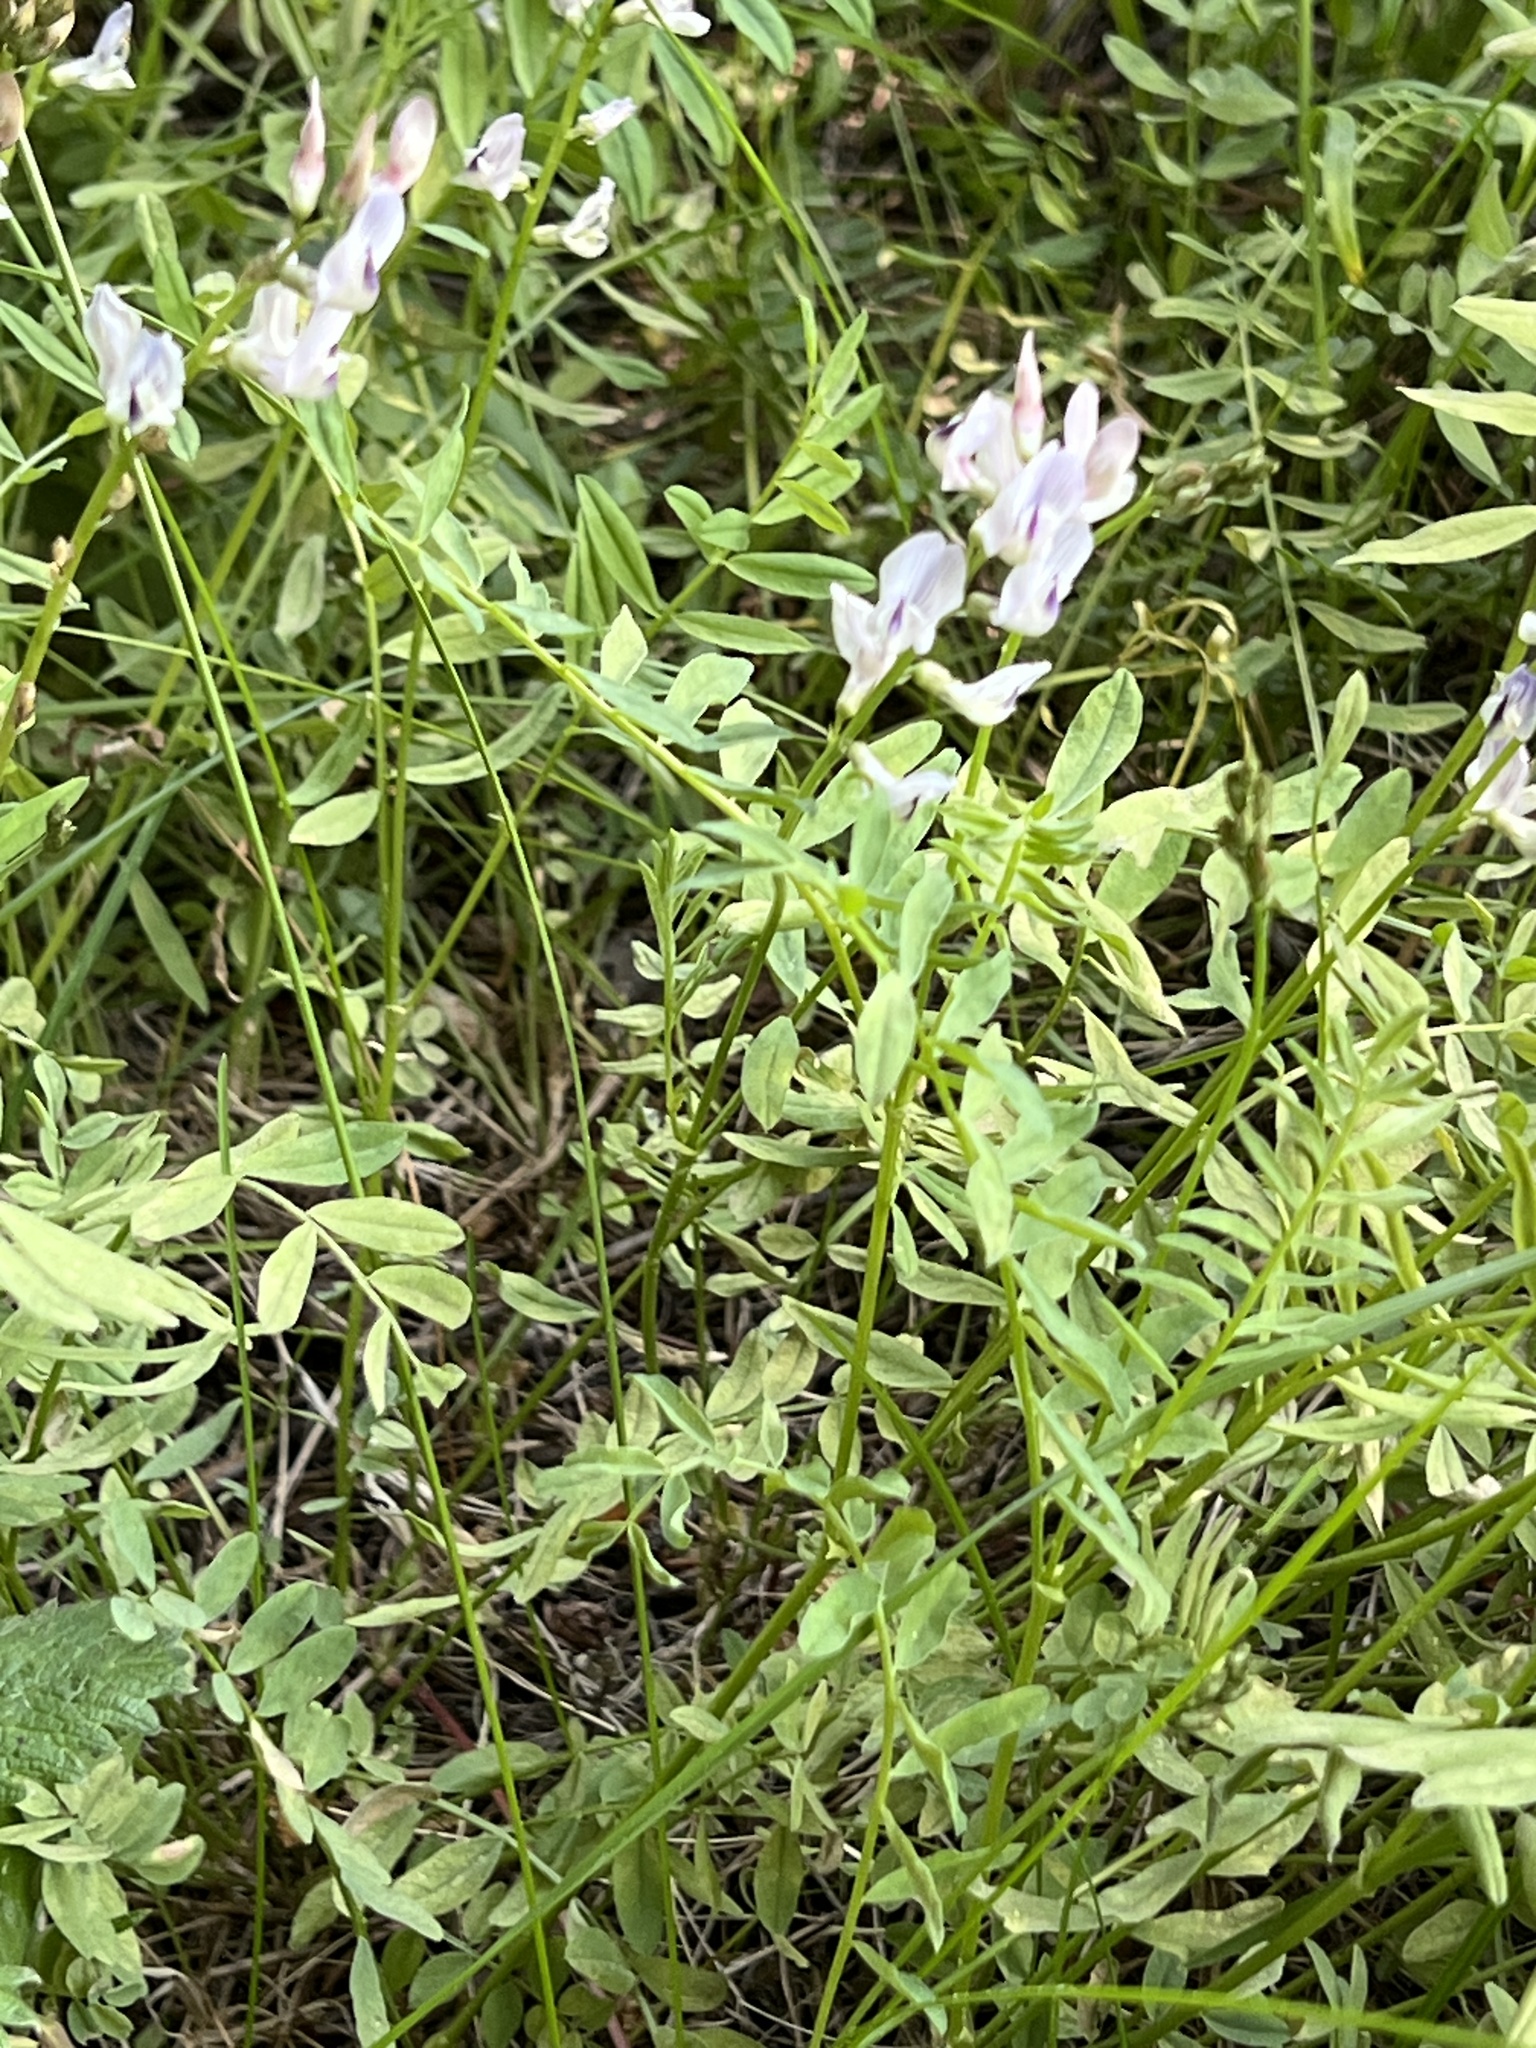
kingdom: Plantae
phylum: Tracheophyta
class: Magnoliopsida
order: Fabales
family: Fabaceae
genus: Astragalus
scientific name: Astragalus miser
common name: Timber milkvetch
